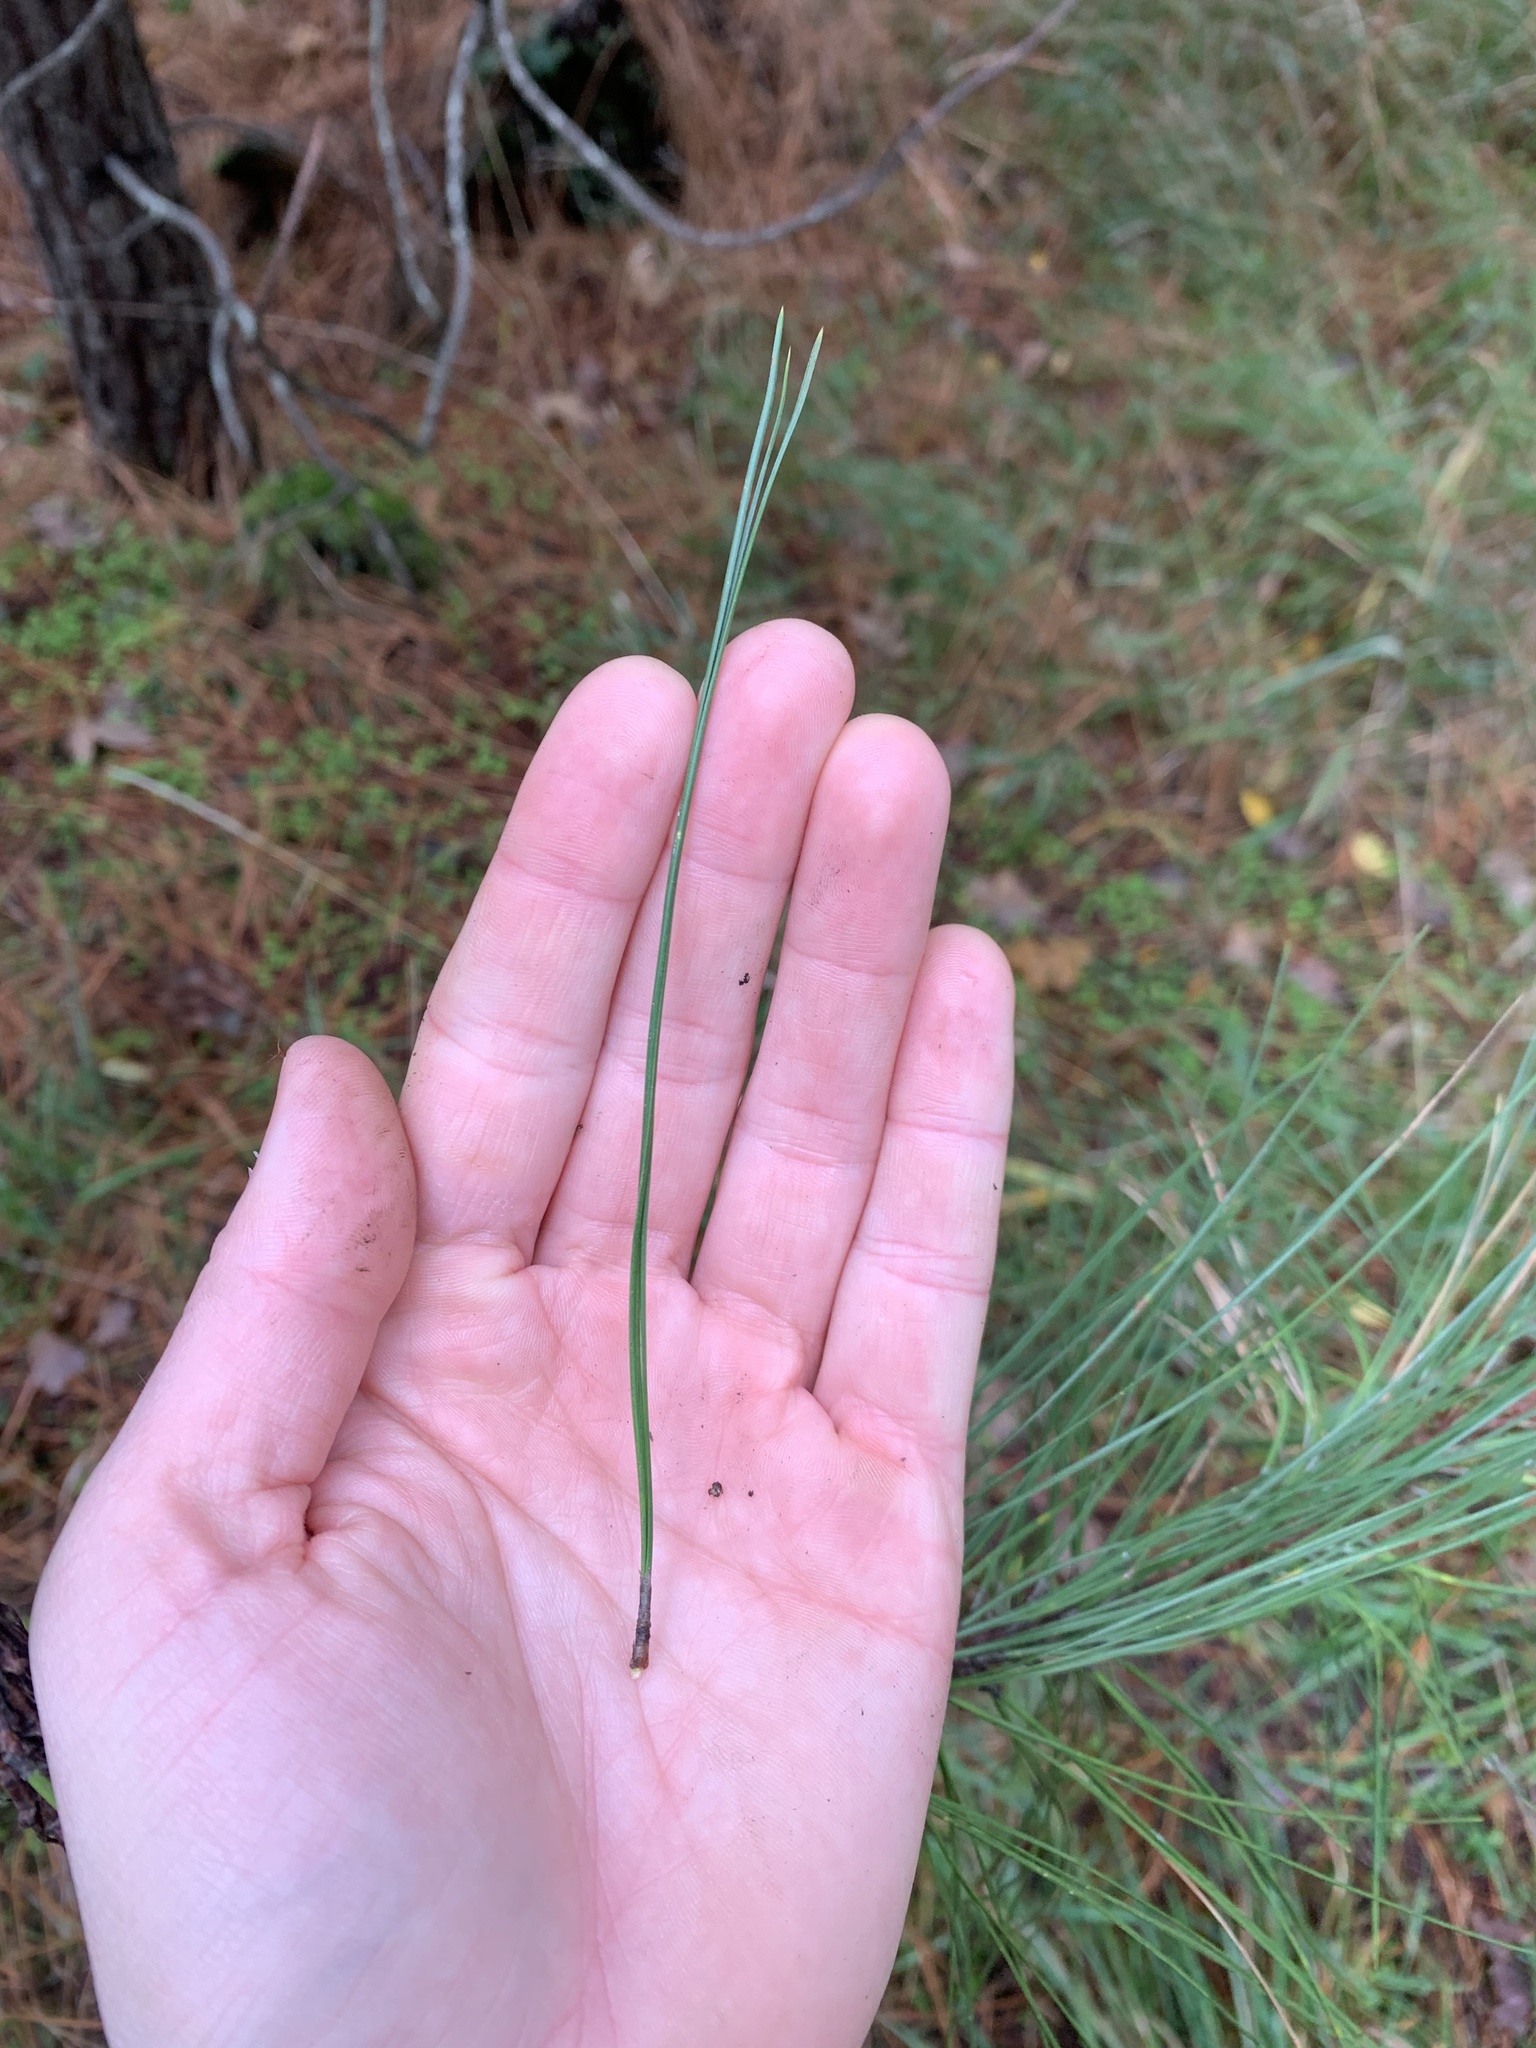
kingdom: Plantae
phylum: Tracheophyta
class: Pinopsida
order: Pinales
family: Pinaceae
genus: Pinus
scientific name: Pinus ponderosa
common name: Western yellow-pine
